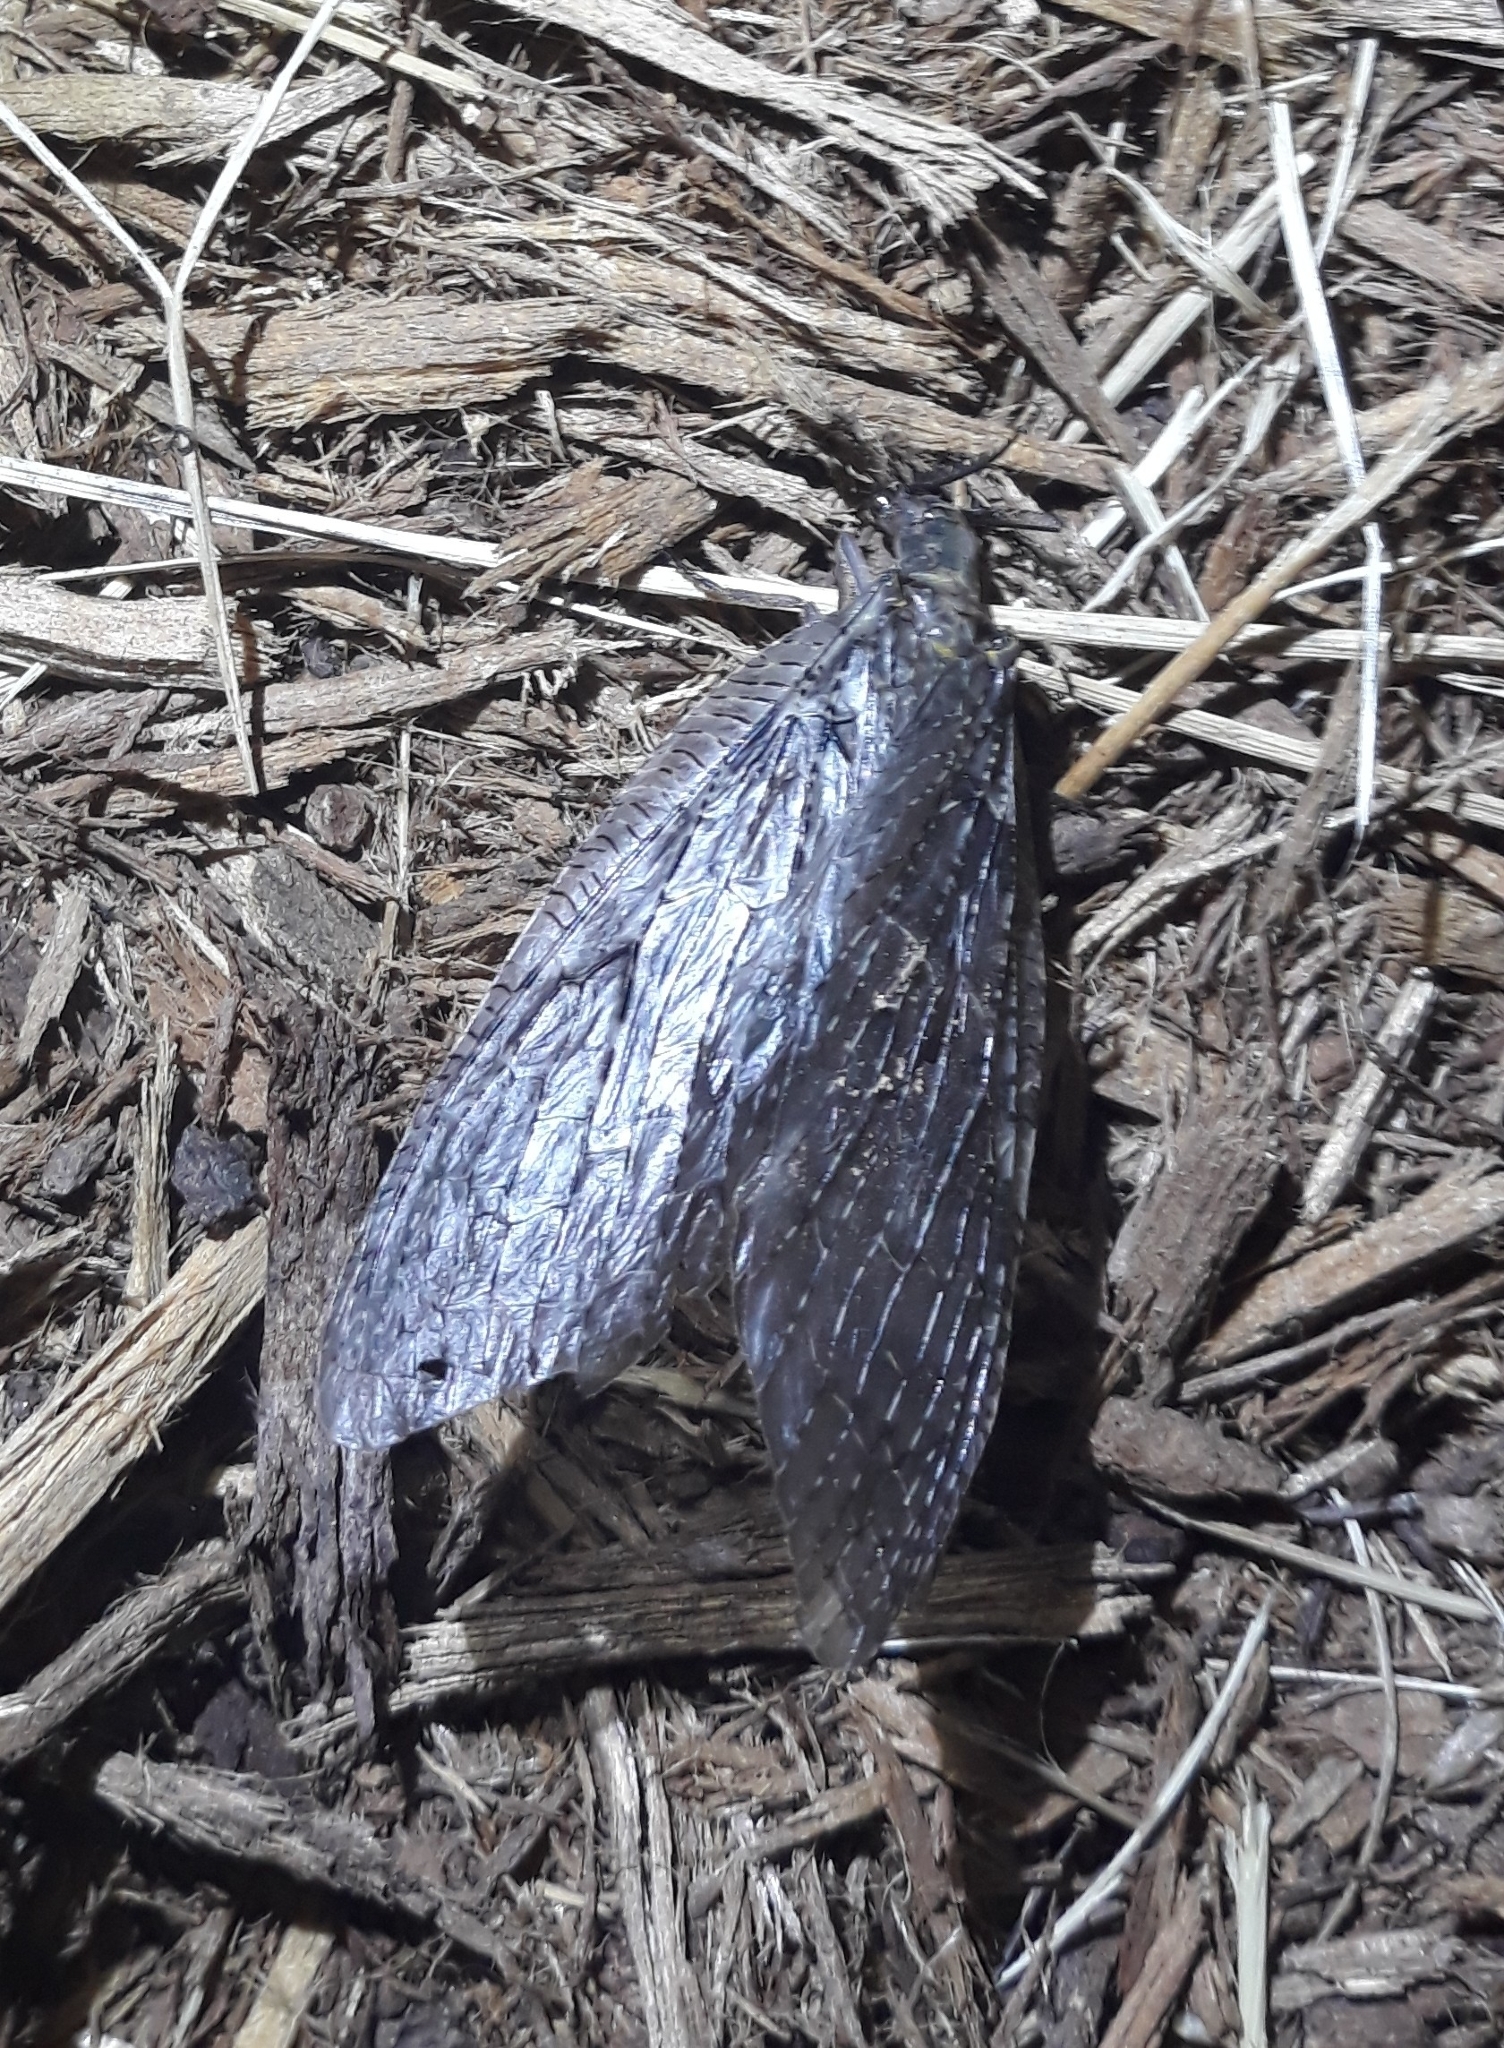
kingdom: Animalia
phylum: Arthropoda
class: Insecta
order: Megaloptera
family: Corydalidae
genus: Chauliodes
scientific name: Chauliodes pectinicornis
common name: Summer fishfly
